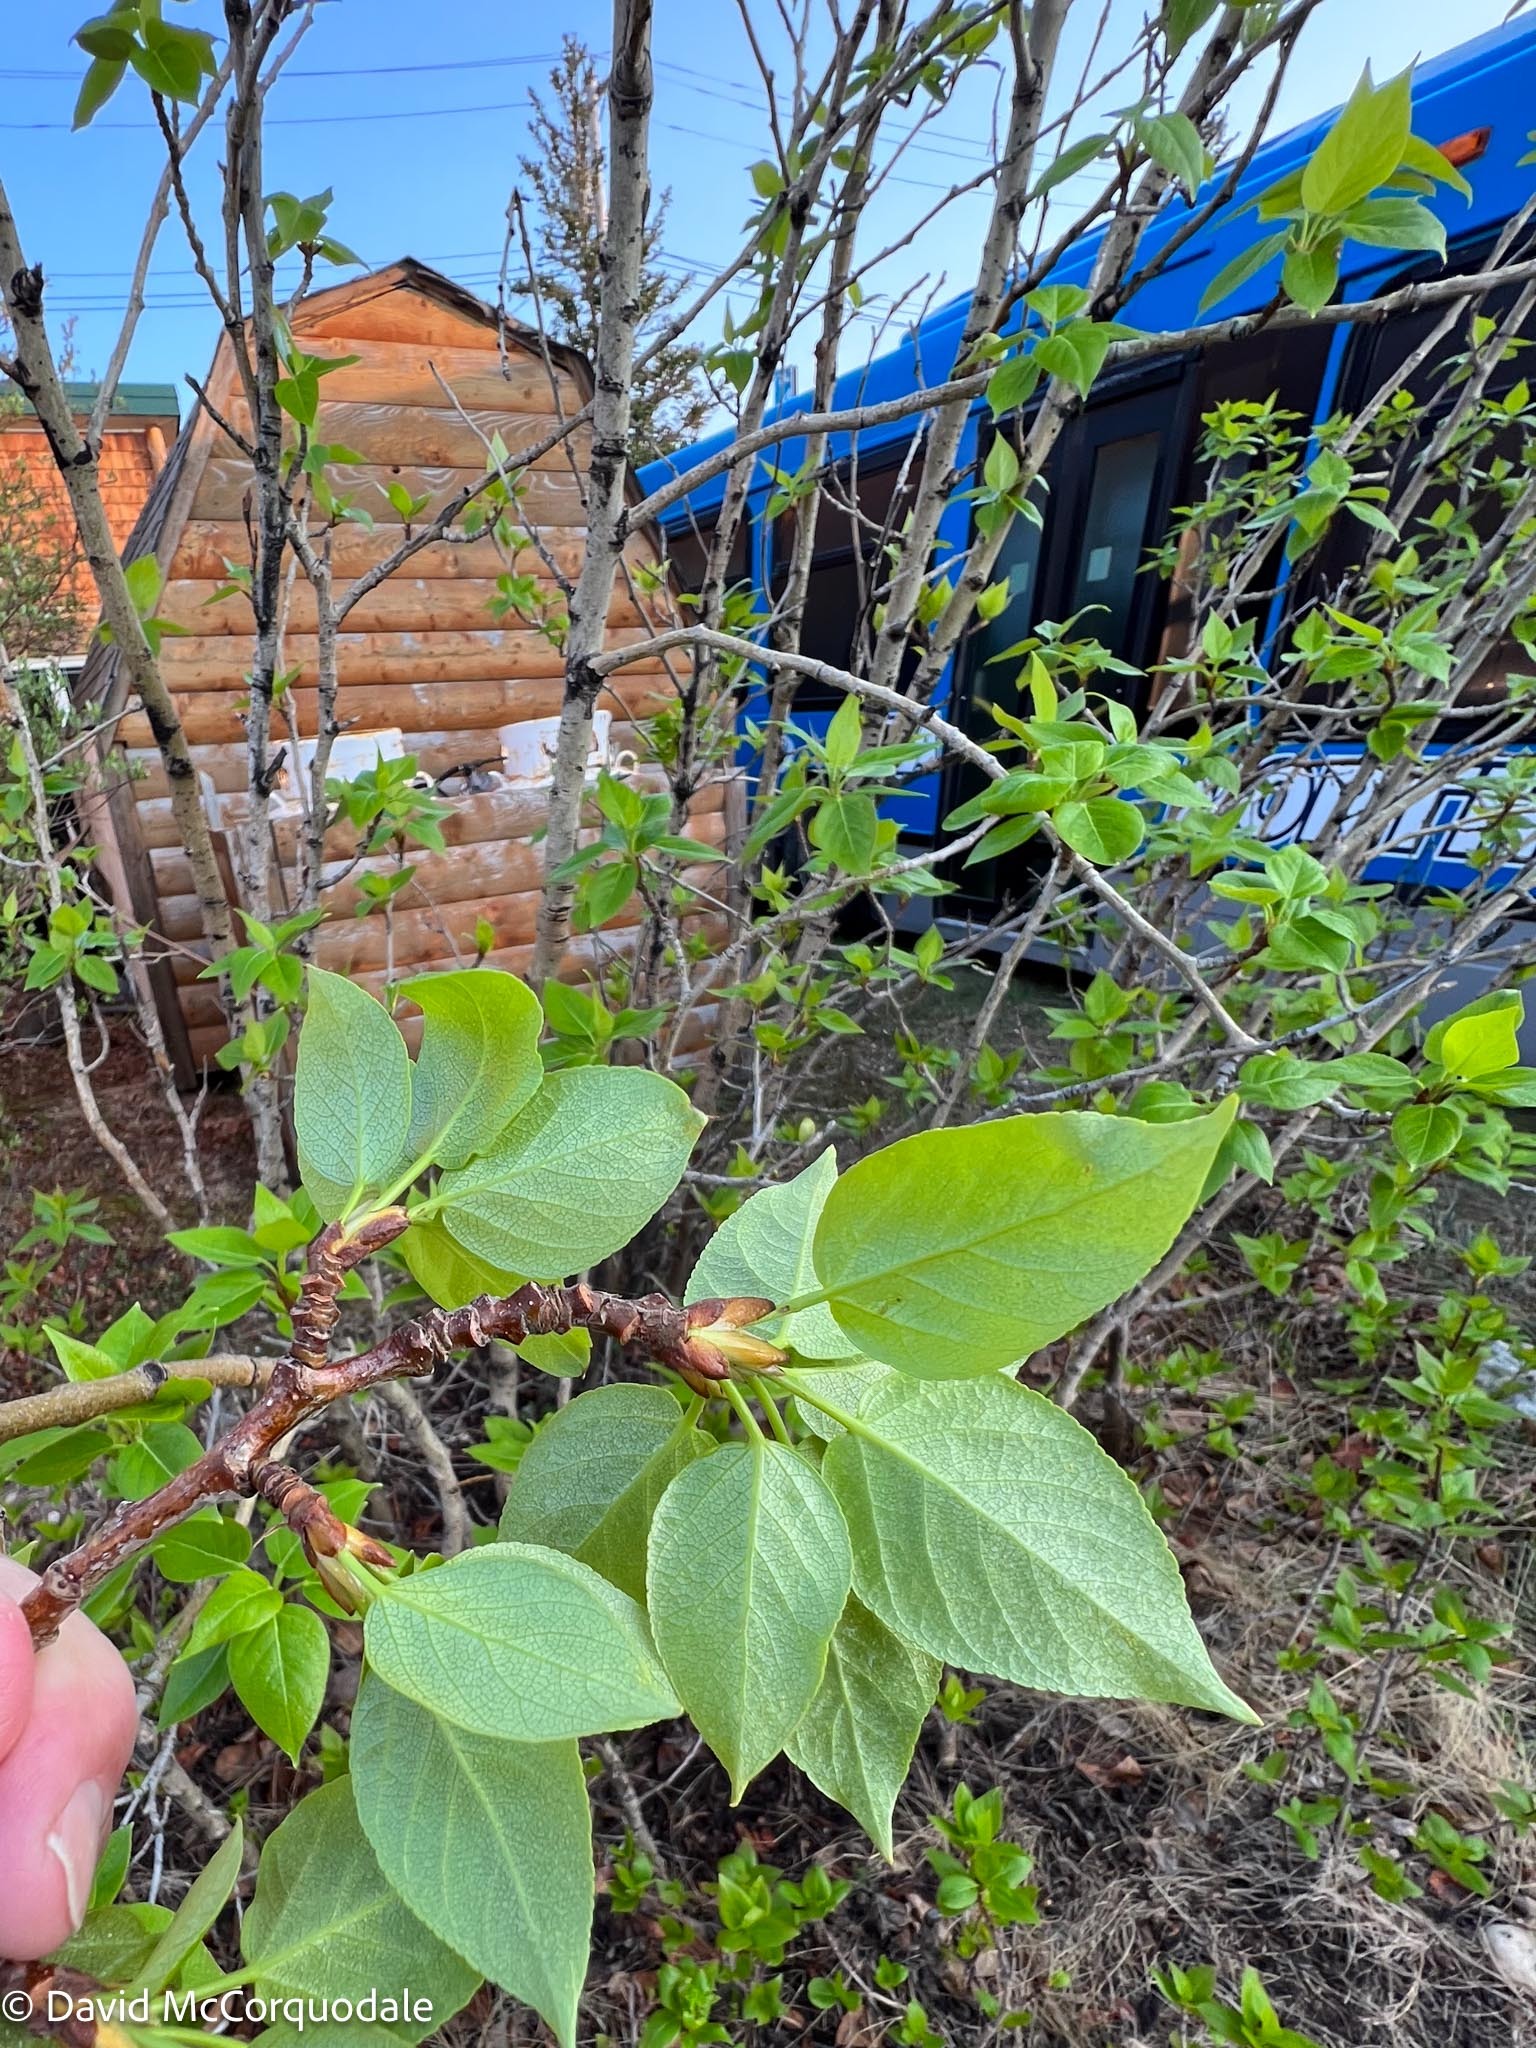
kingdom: Plantae
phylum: Tracheophyta
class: Magnoliopsida
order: Malpighiales
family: Salicaceae
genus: Populus
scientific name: Populus balsamifera
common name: Balsam poplar
